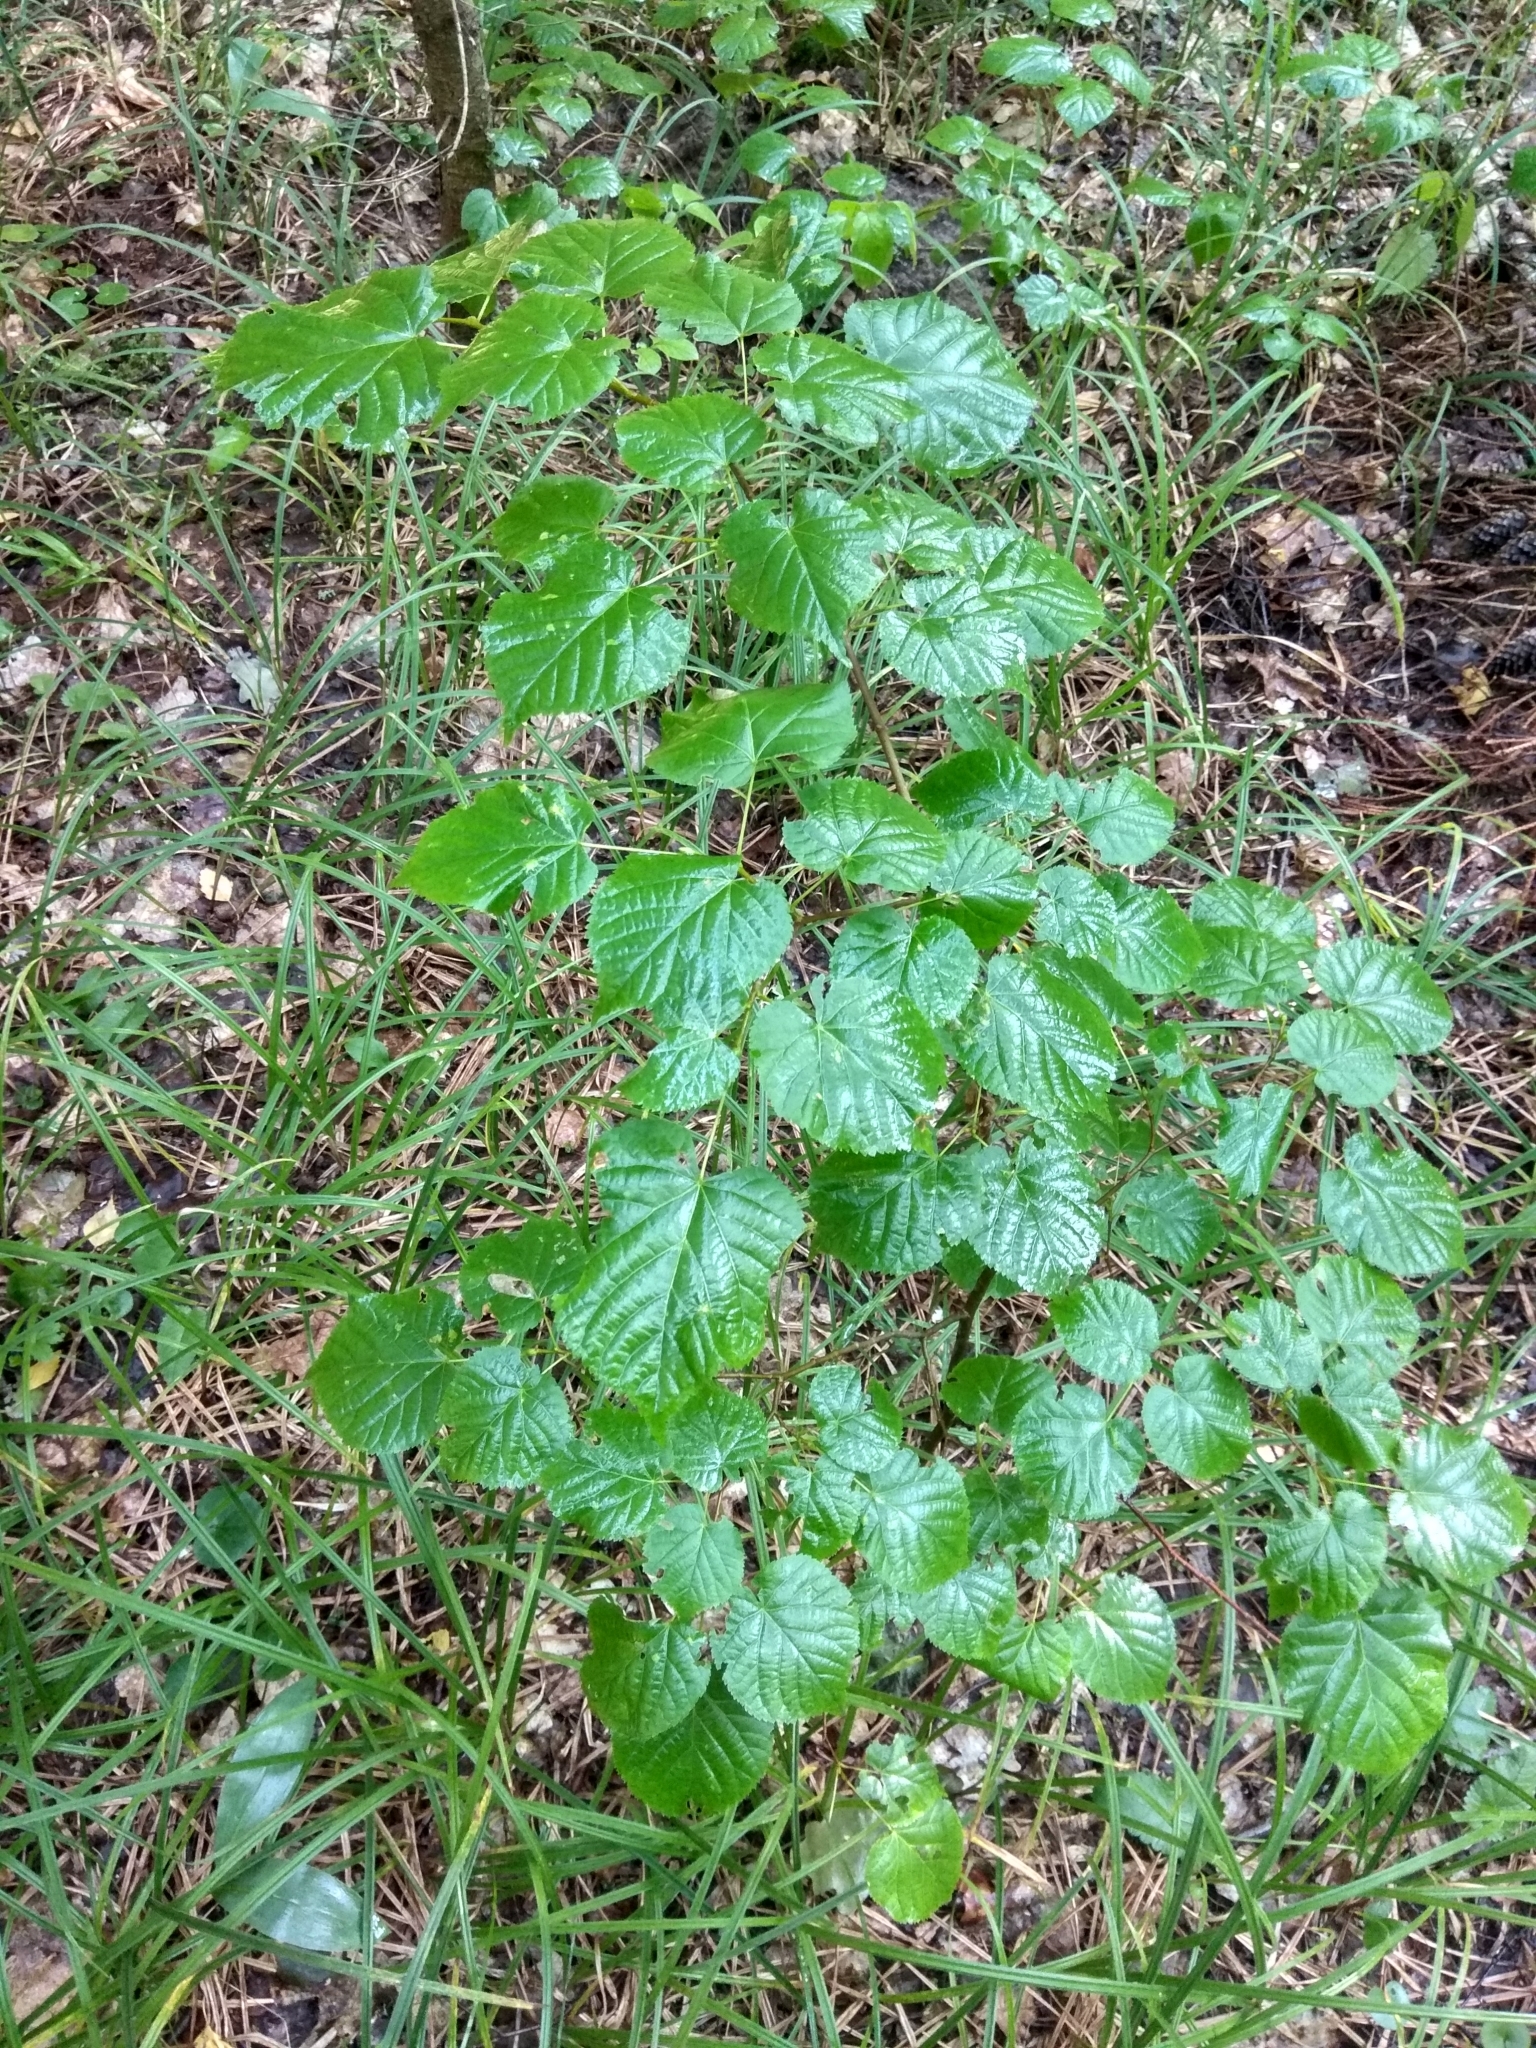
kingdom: Plantae
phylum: Tracheophyta
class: Magnoliopsida
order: Malvales
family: Malvaceae
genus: Tilia
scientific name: Tilia cordata
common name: Small-leaved lime
